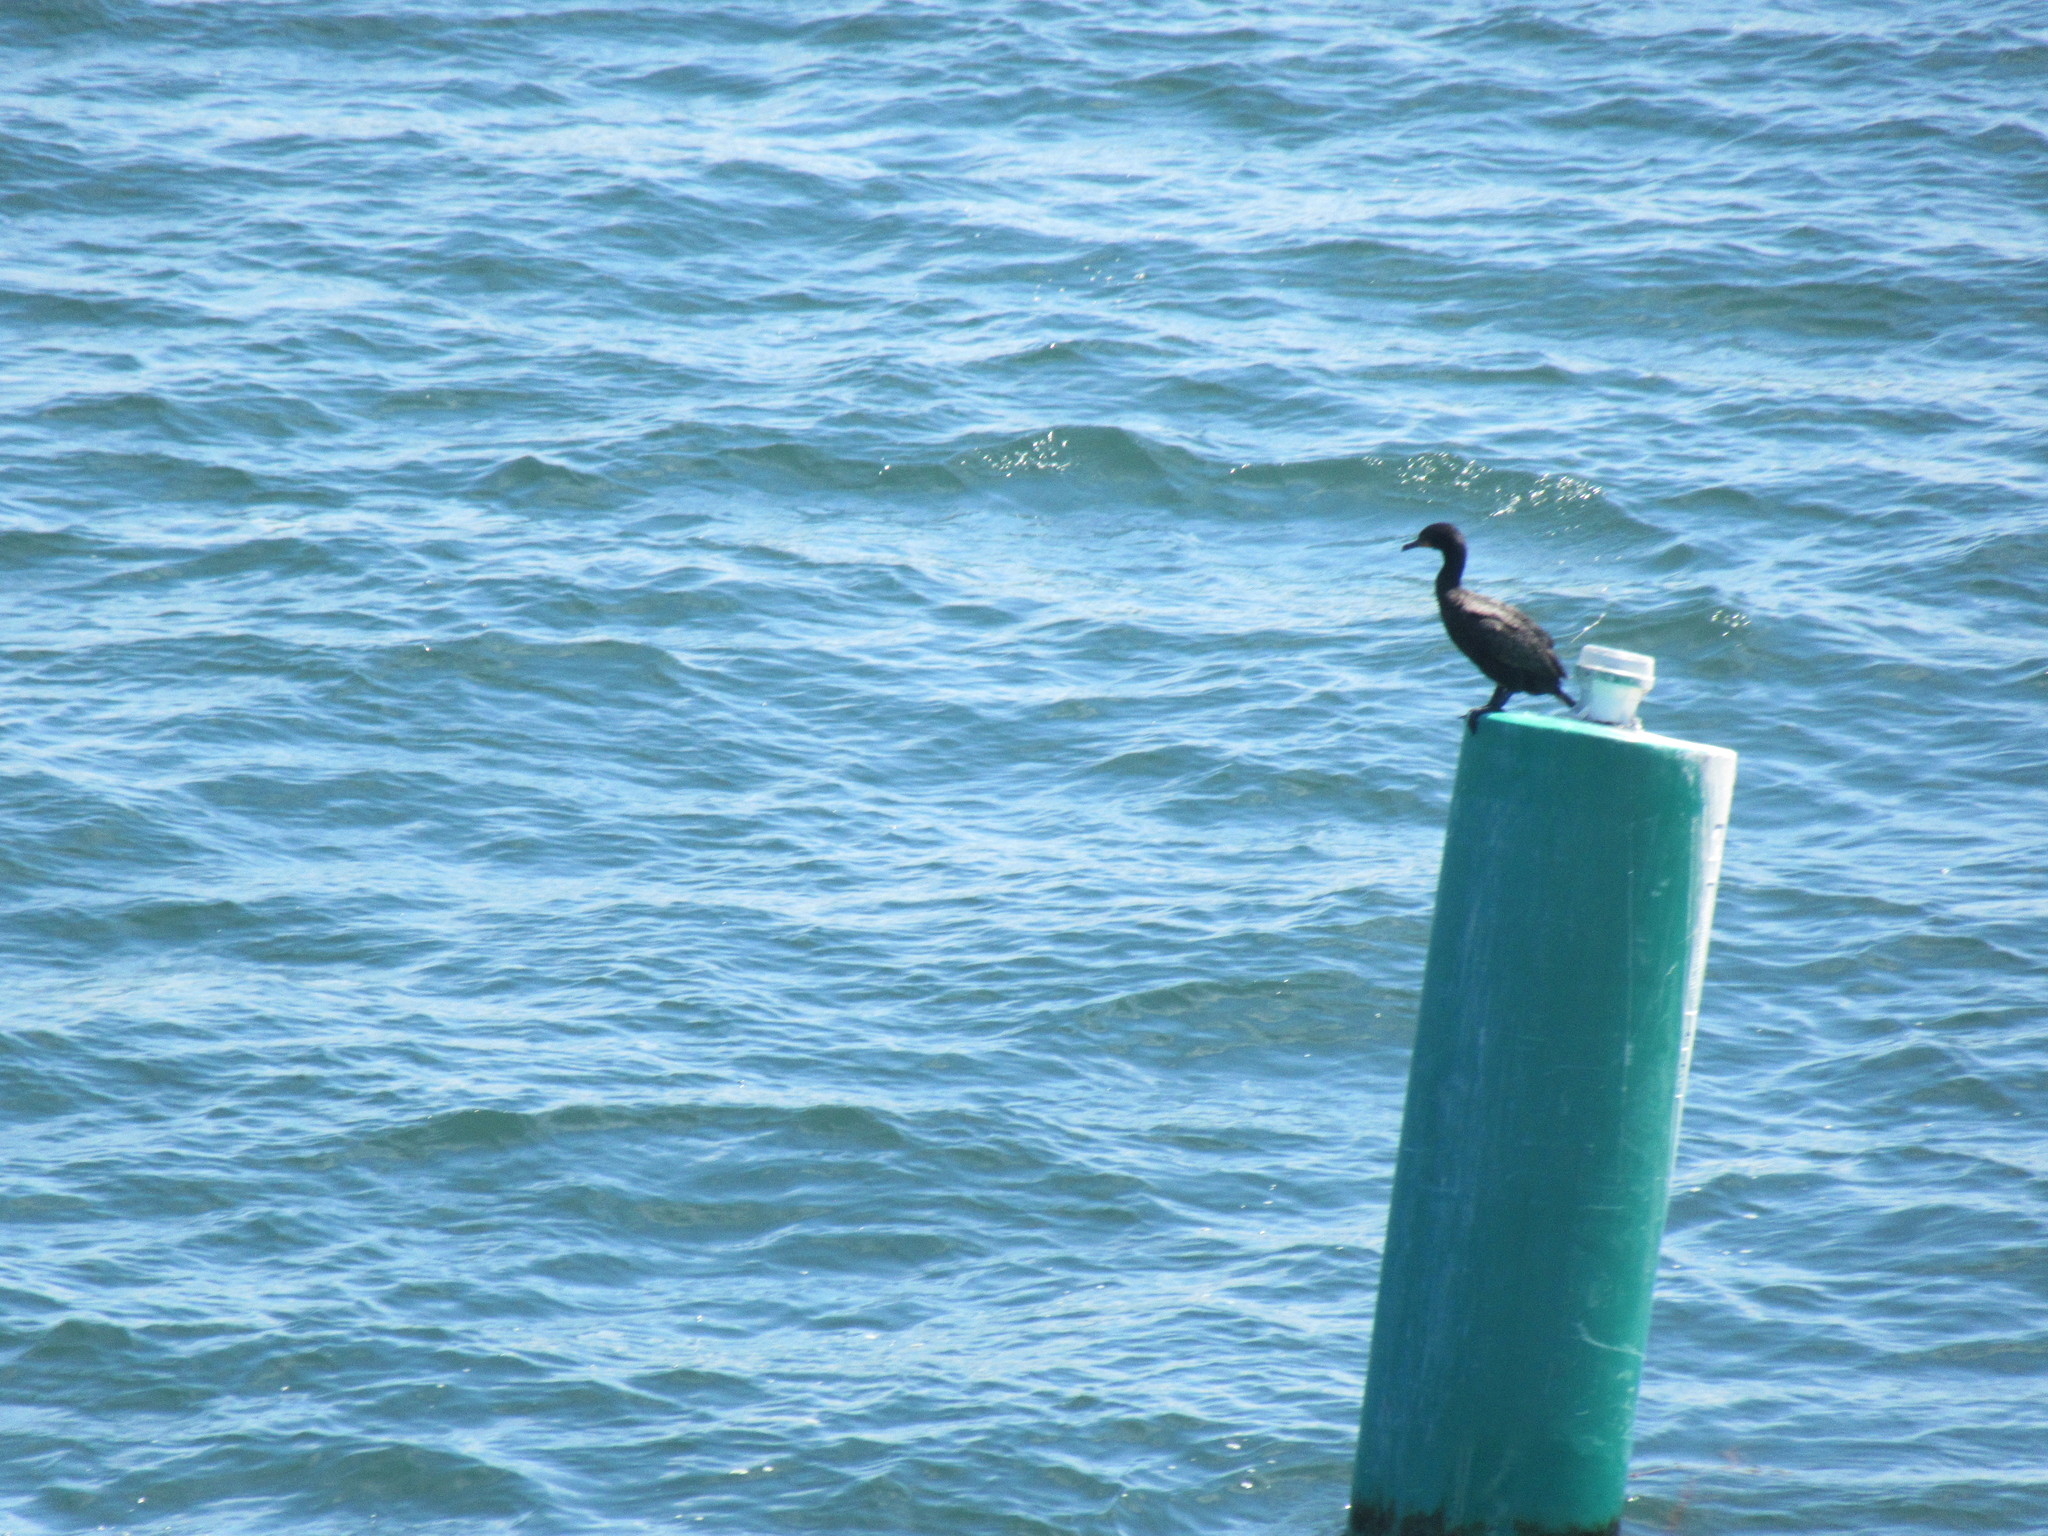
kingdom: Animalia
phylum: Chordata
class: Aves
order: Suliformes
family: Phalacrocoracidae
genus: Phalacrocorax
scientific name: Phalacrocorax auritus
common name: Double-crested cormorant
